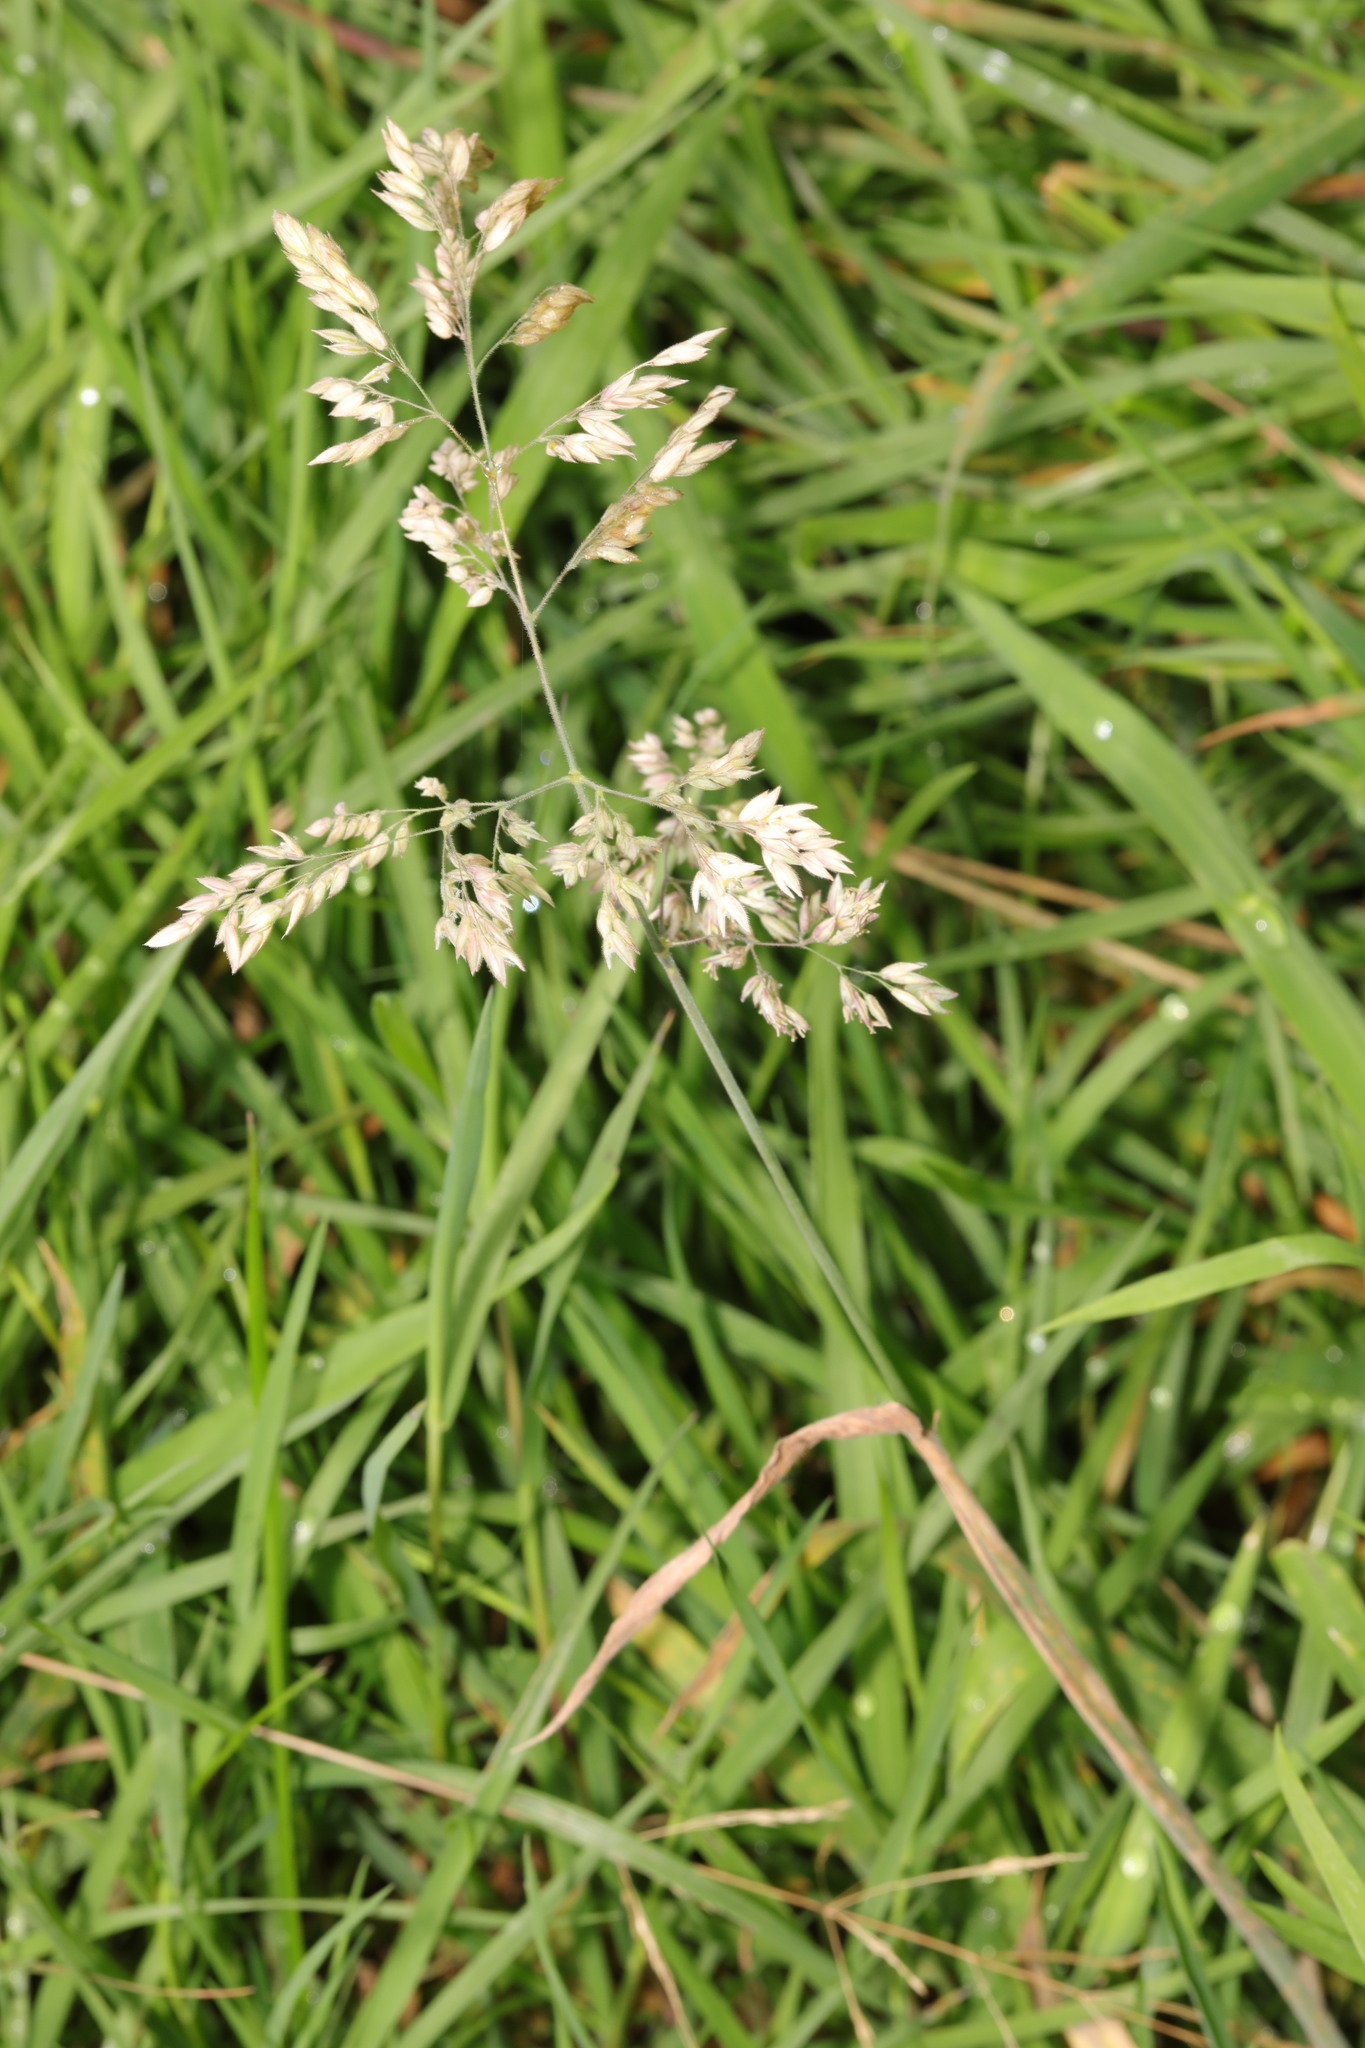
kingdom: Plantae
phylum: Tracheophyta
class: Liliopsida
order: Poales
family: Poaceae
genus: Holcus
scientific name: Holcus lanatus
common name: Yorkshire-fog
